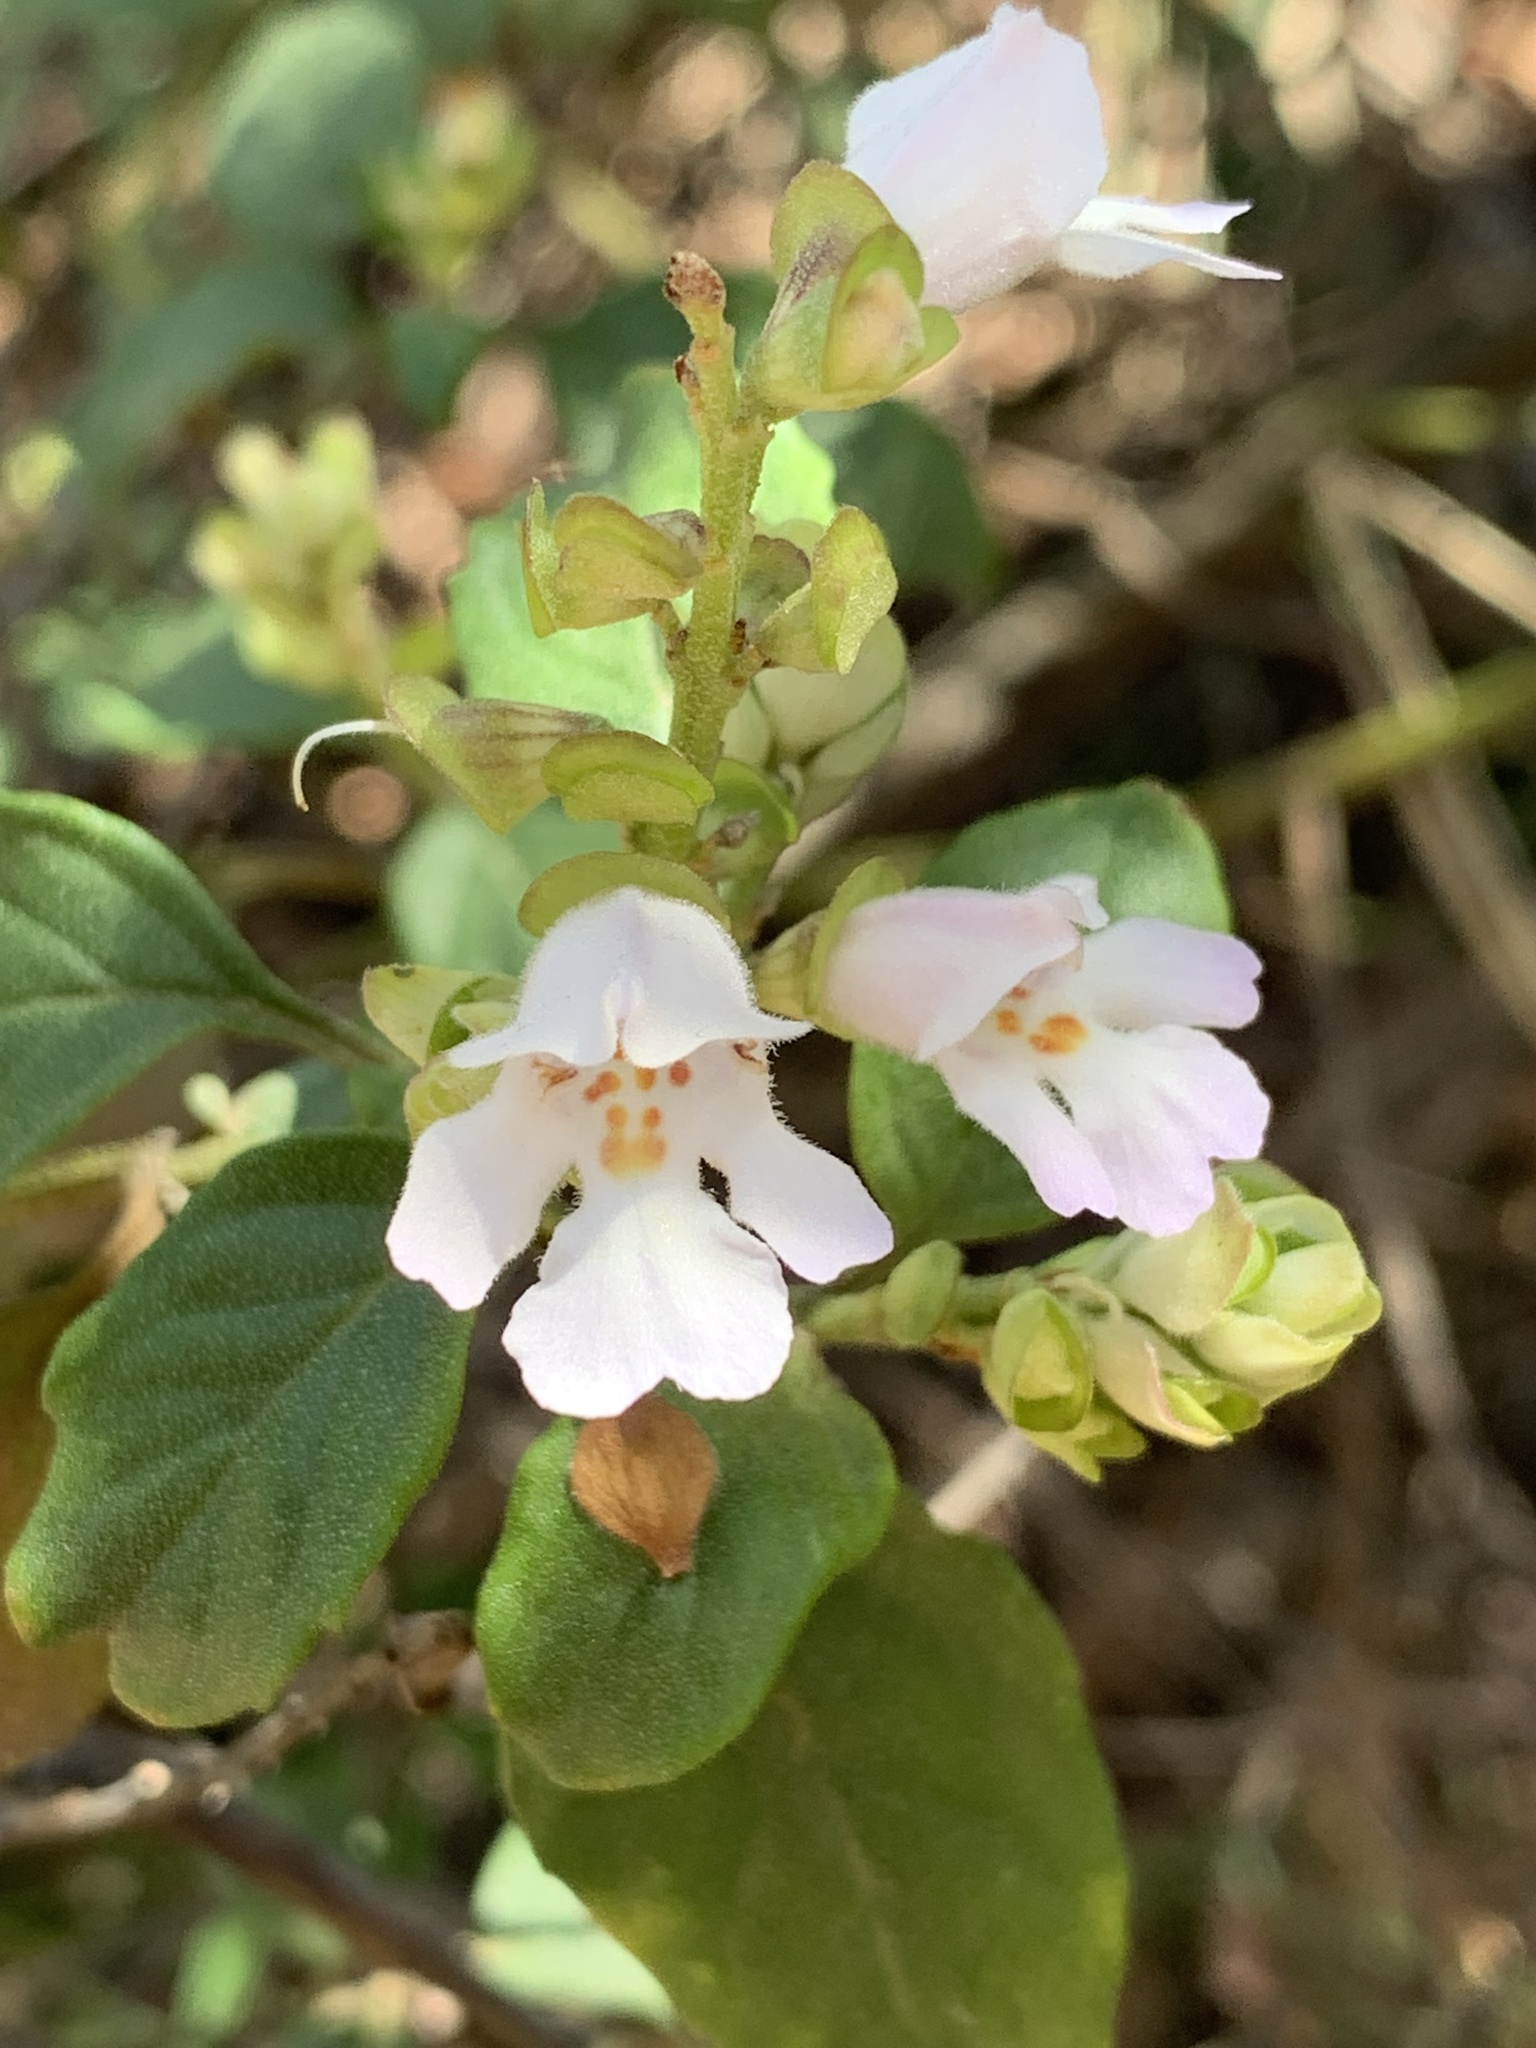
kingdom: Plantae
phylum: Tracheophyta
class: Magnoliopsida
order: Lamiales
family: Lamiaceae
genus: Prostanthera
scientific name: Prostanthera prunelloides
